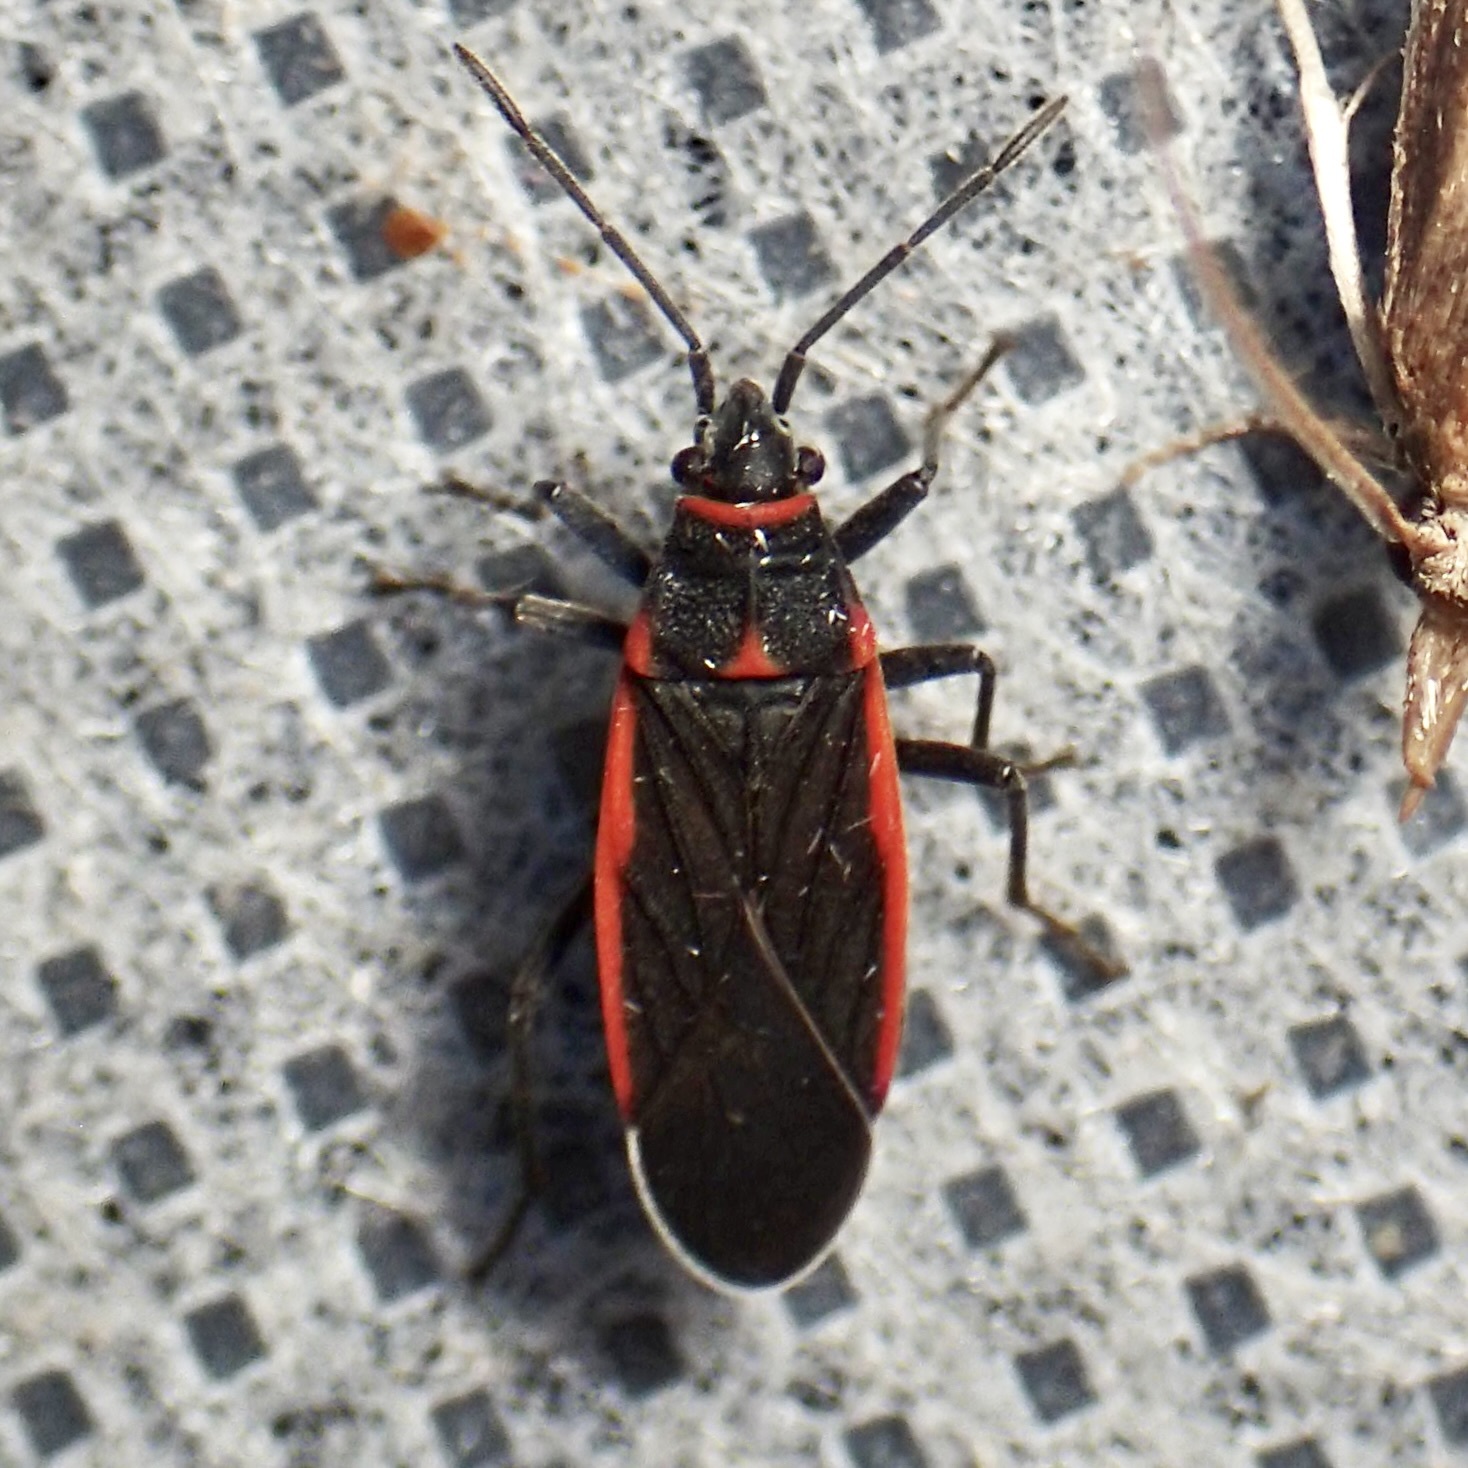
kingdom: Animalia
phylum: Arthropoda
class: Insecta
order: Hemiptera
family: Lygaeidae
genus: Melacoryphus
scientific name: Melacoryphus lateralis
